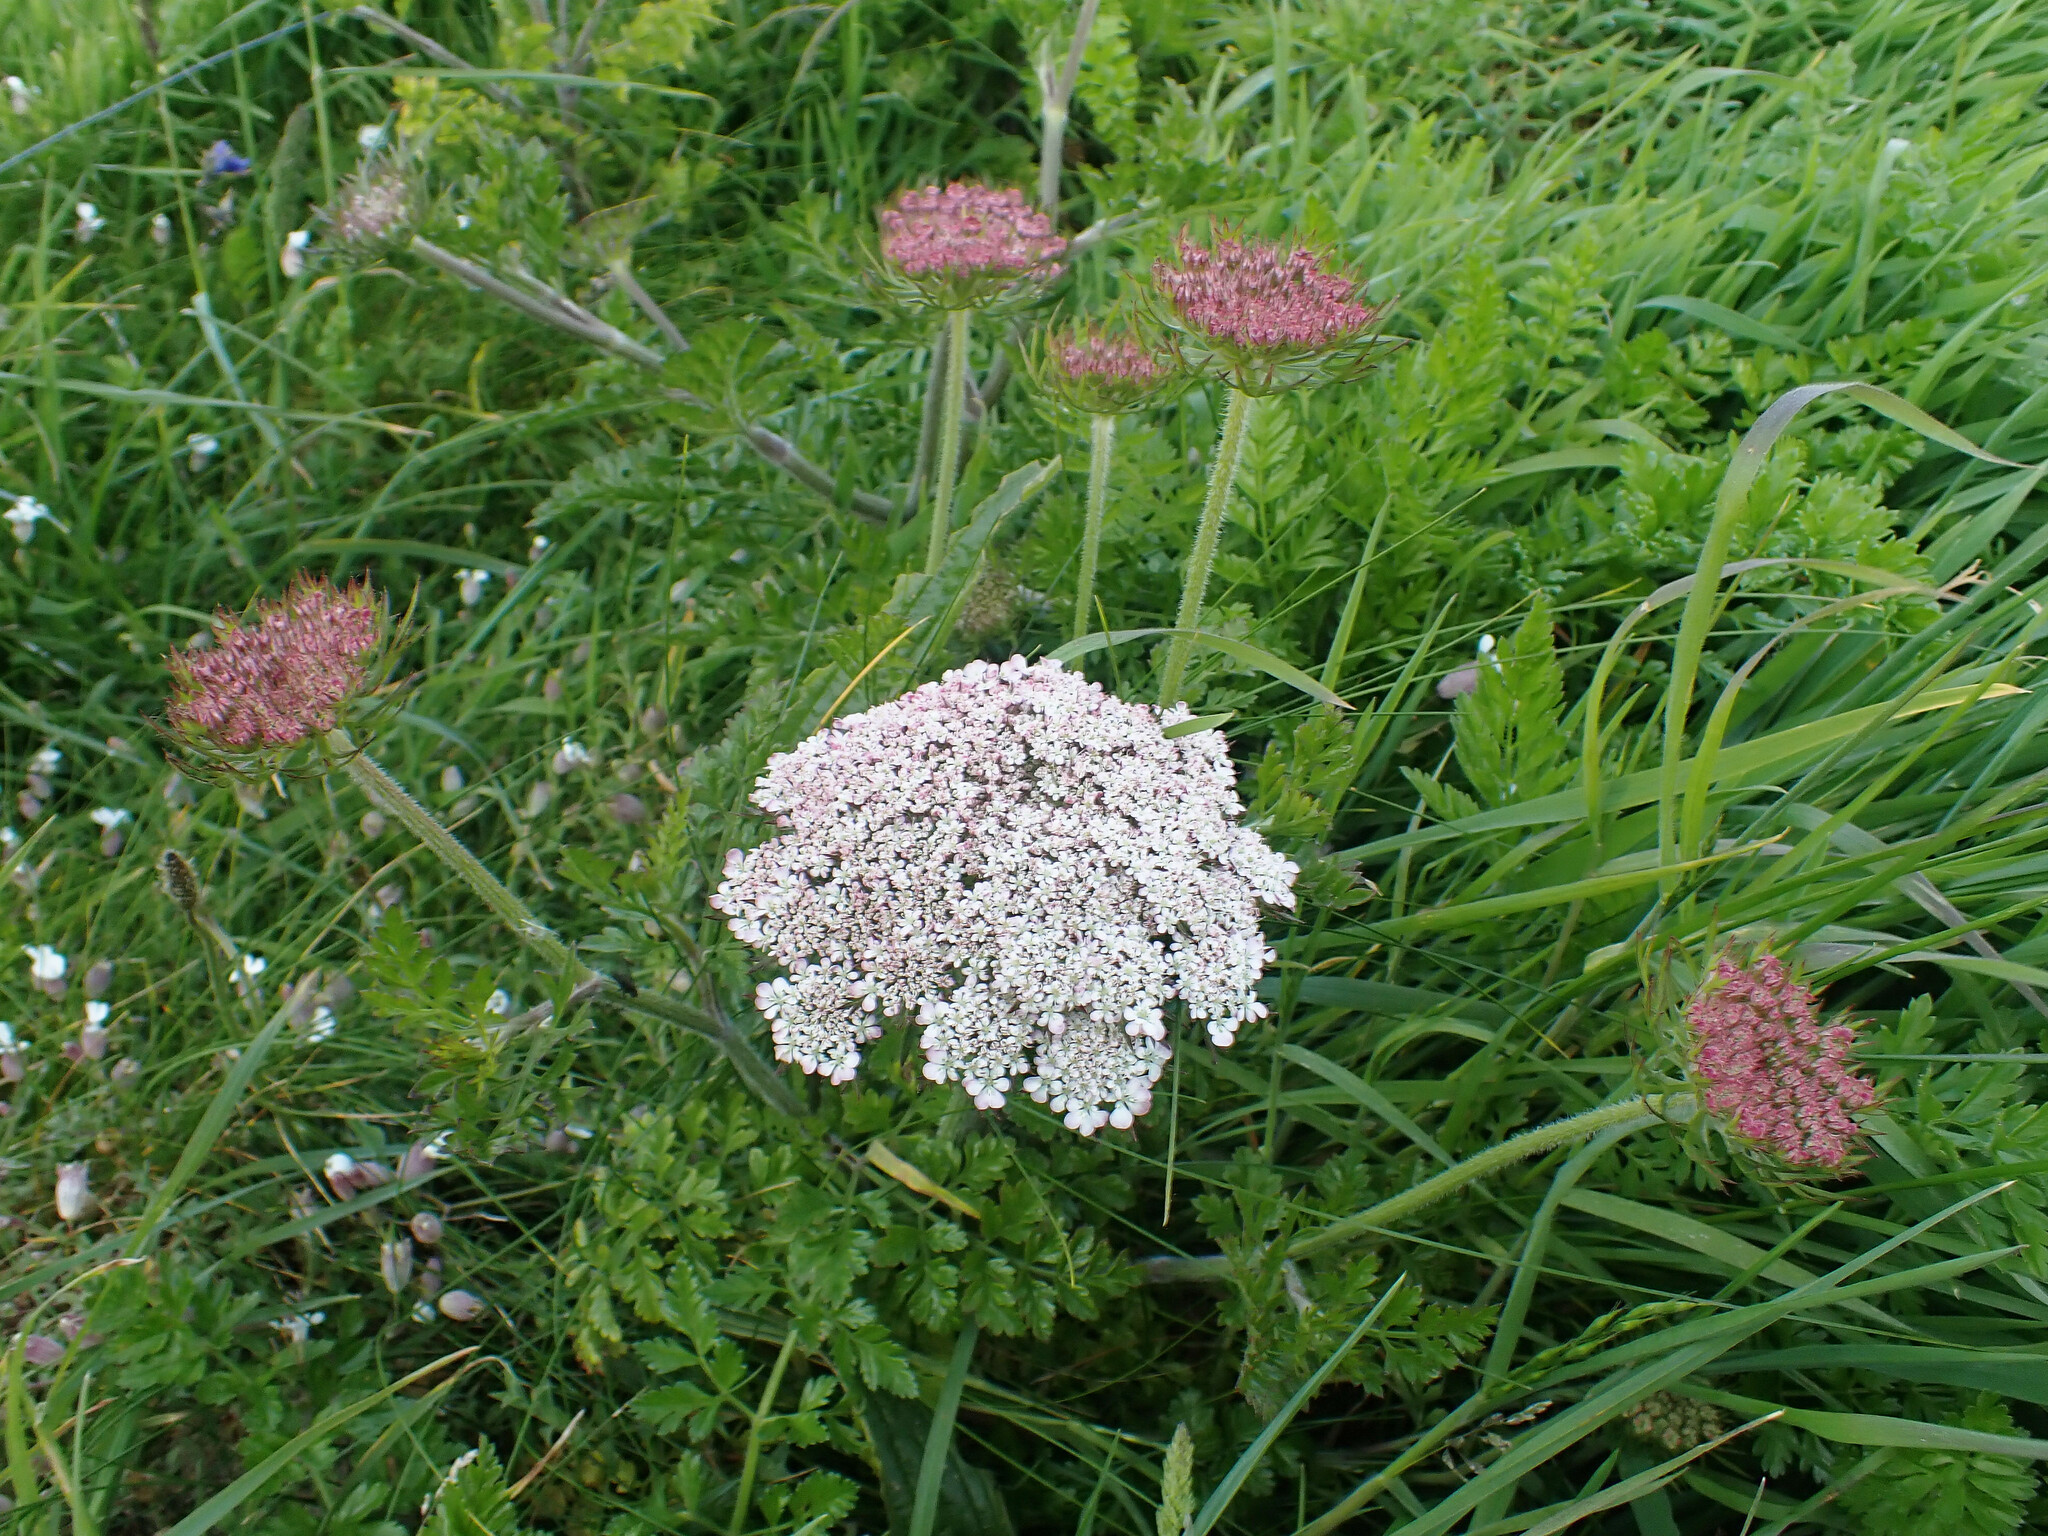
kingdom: Plantae
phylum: Tracheophyta
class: Magnoliopsida
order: Apiales
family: Apiaceae
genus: Daucus
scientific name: Daucus carota
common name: Wild carrot
